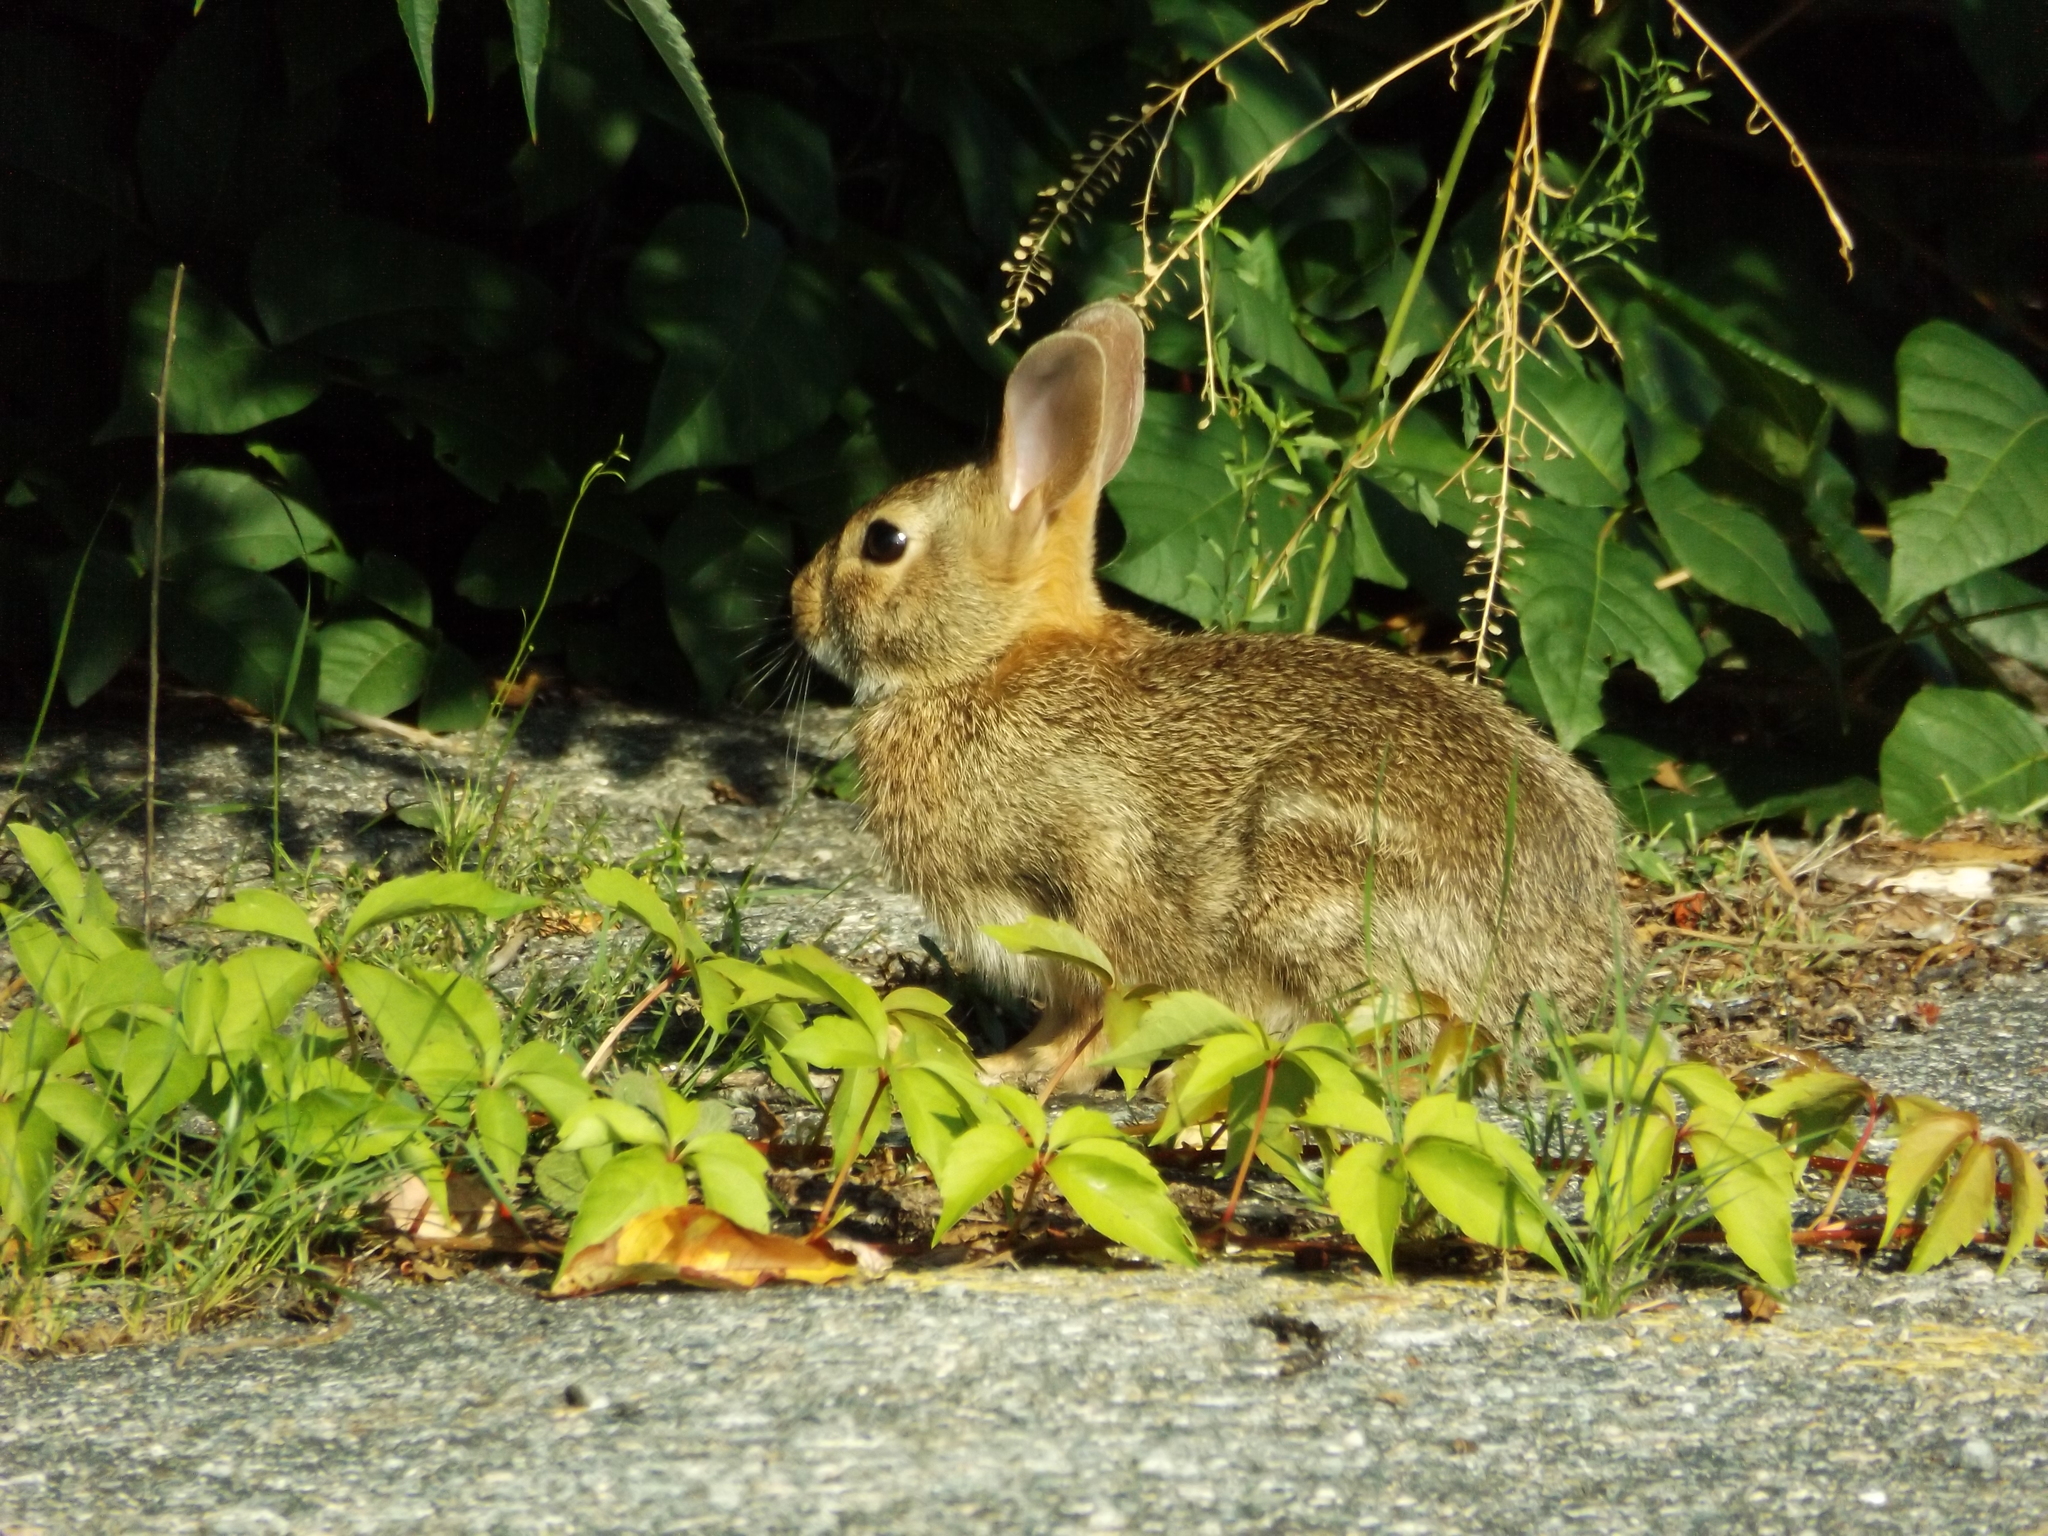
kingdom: Animalia
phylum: Chordata
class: Mammalia
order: Lagomorpha
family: Leporidae
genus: Sylvilagus
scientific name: Sylvilagus floridanus
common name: Eastern cottontail
